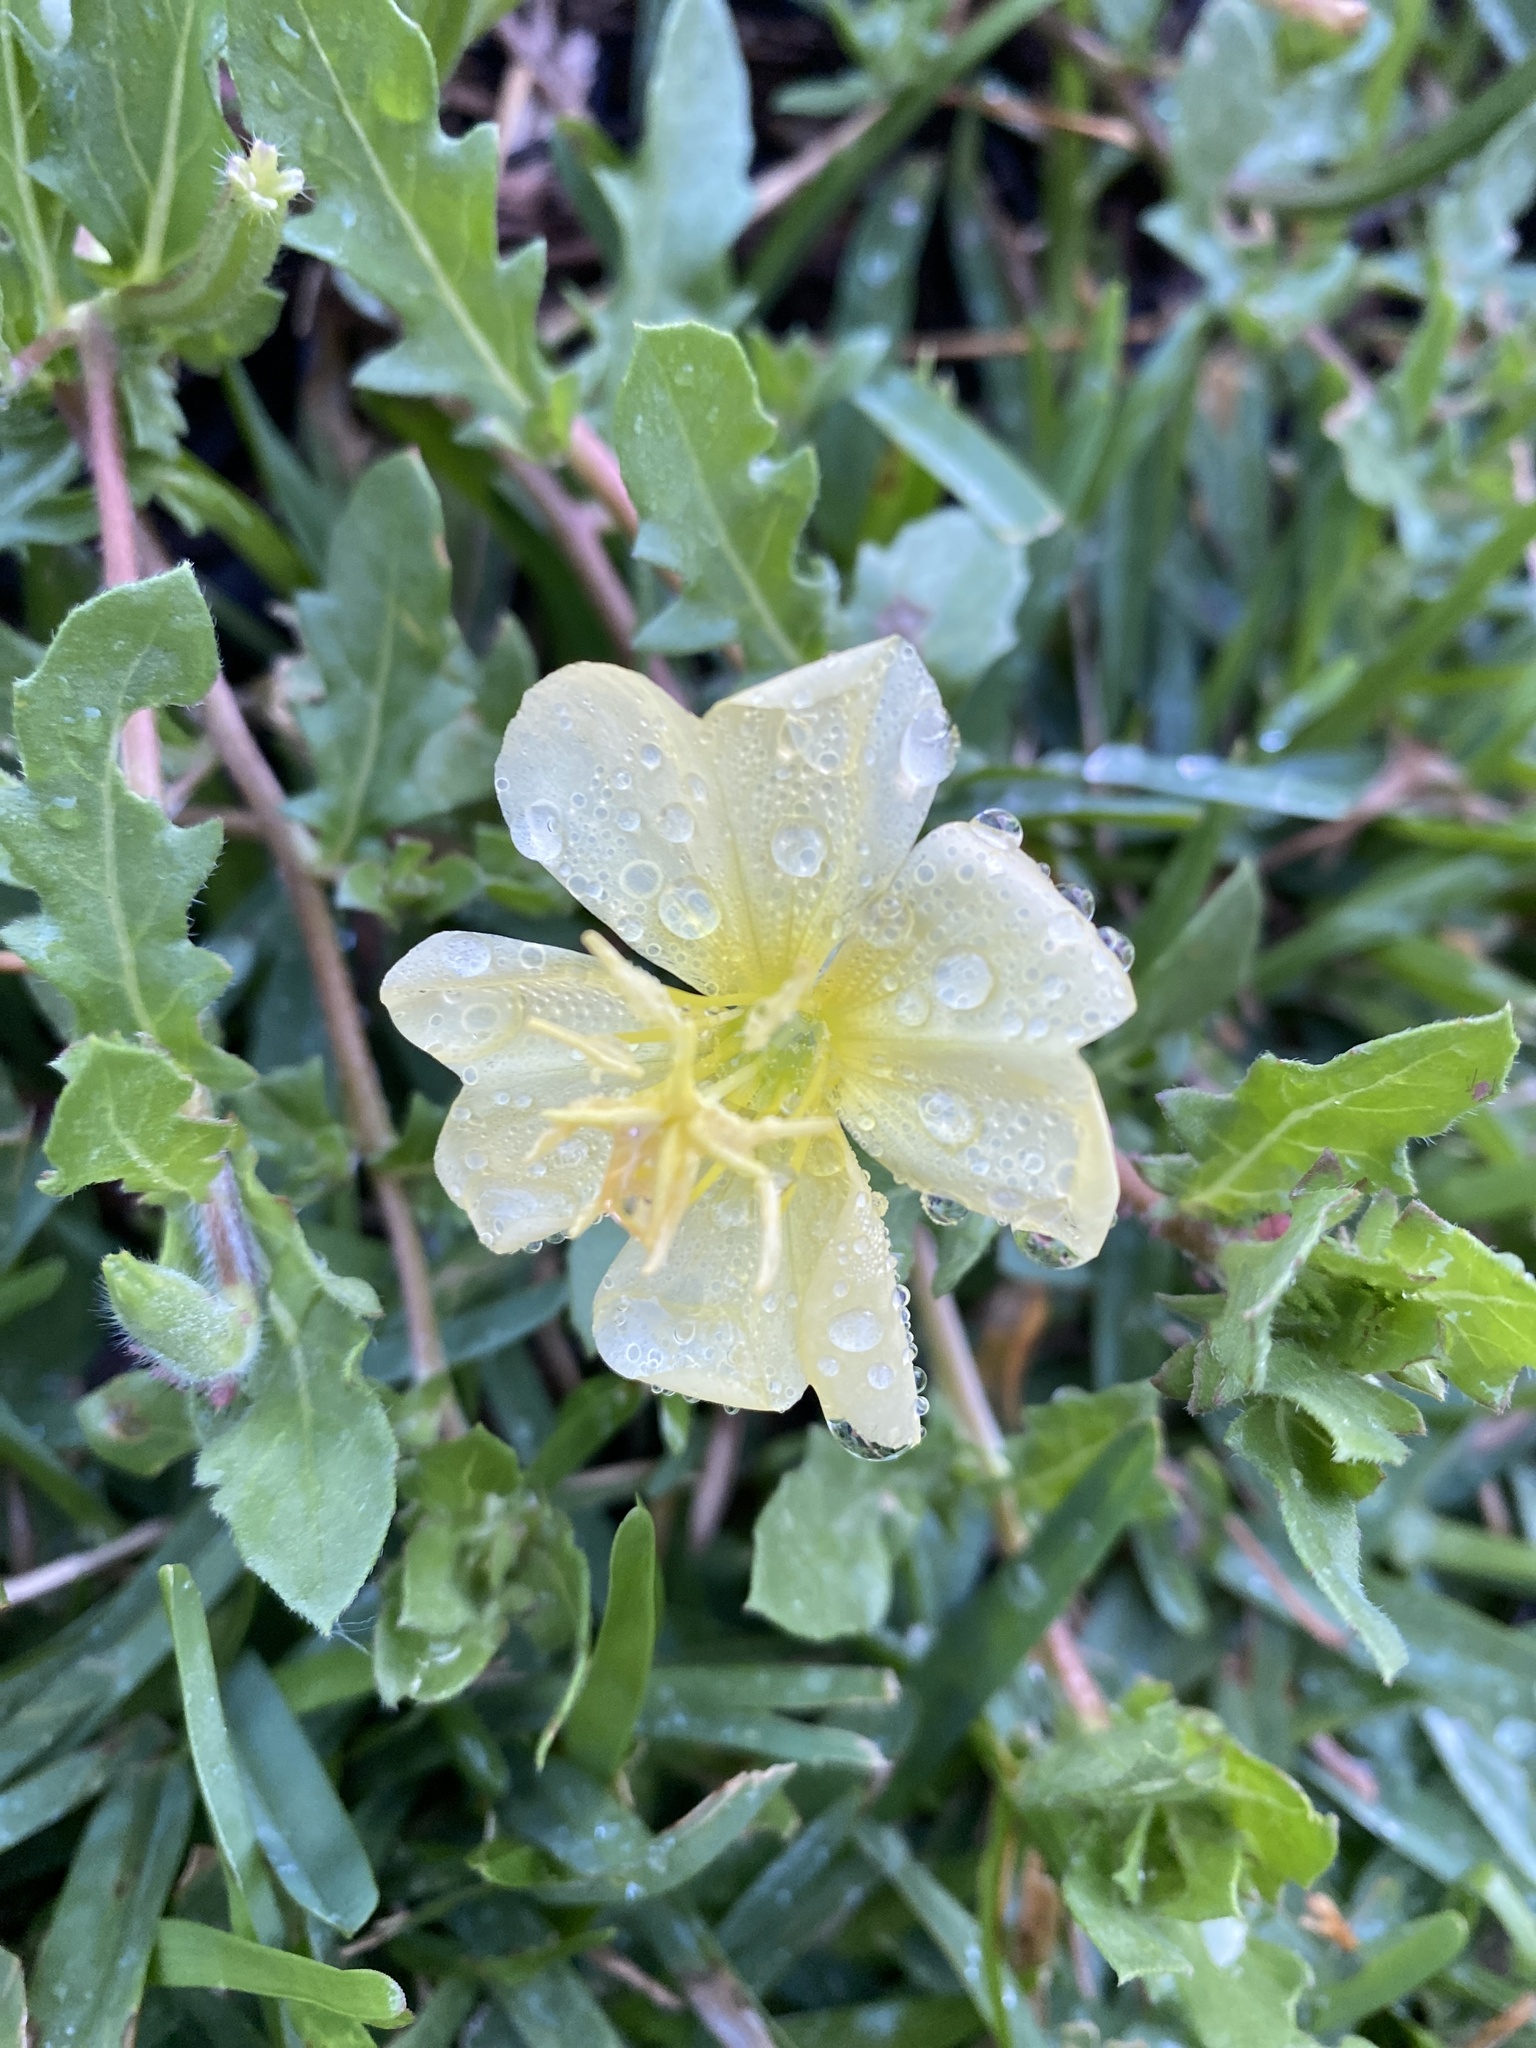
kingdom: Plantae
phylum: Tracheophyta
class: Magnoliopsida
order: Myrtales
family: Onagraceae
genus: Oenothera
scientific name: Oenothera laciniata
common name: Cut-leaved evening-primrose
